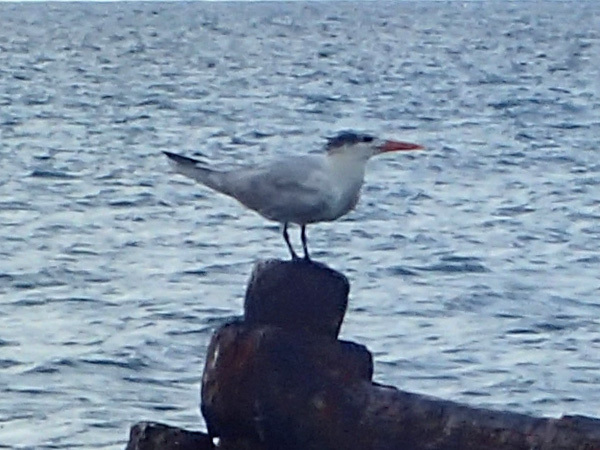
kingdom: Animalia
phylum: Chordata
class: Aves
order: Charadriiformes
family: Laridae
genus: Thalasseus
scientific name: Thalasseus maximus
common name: Royal tern
